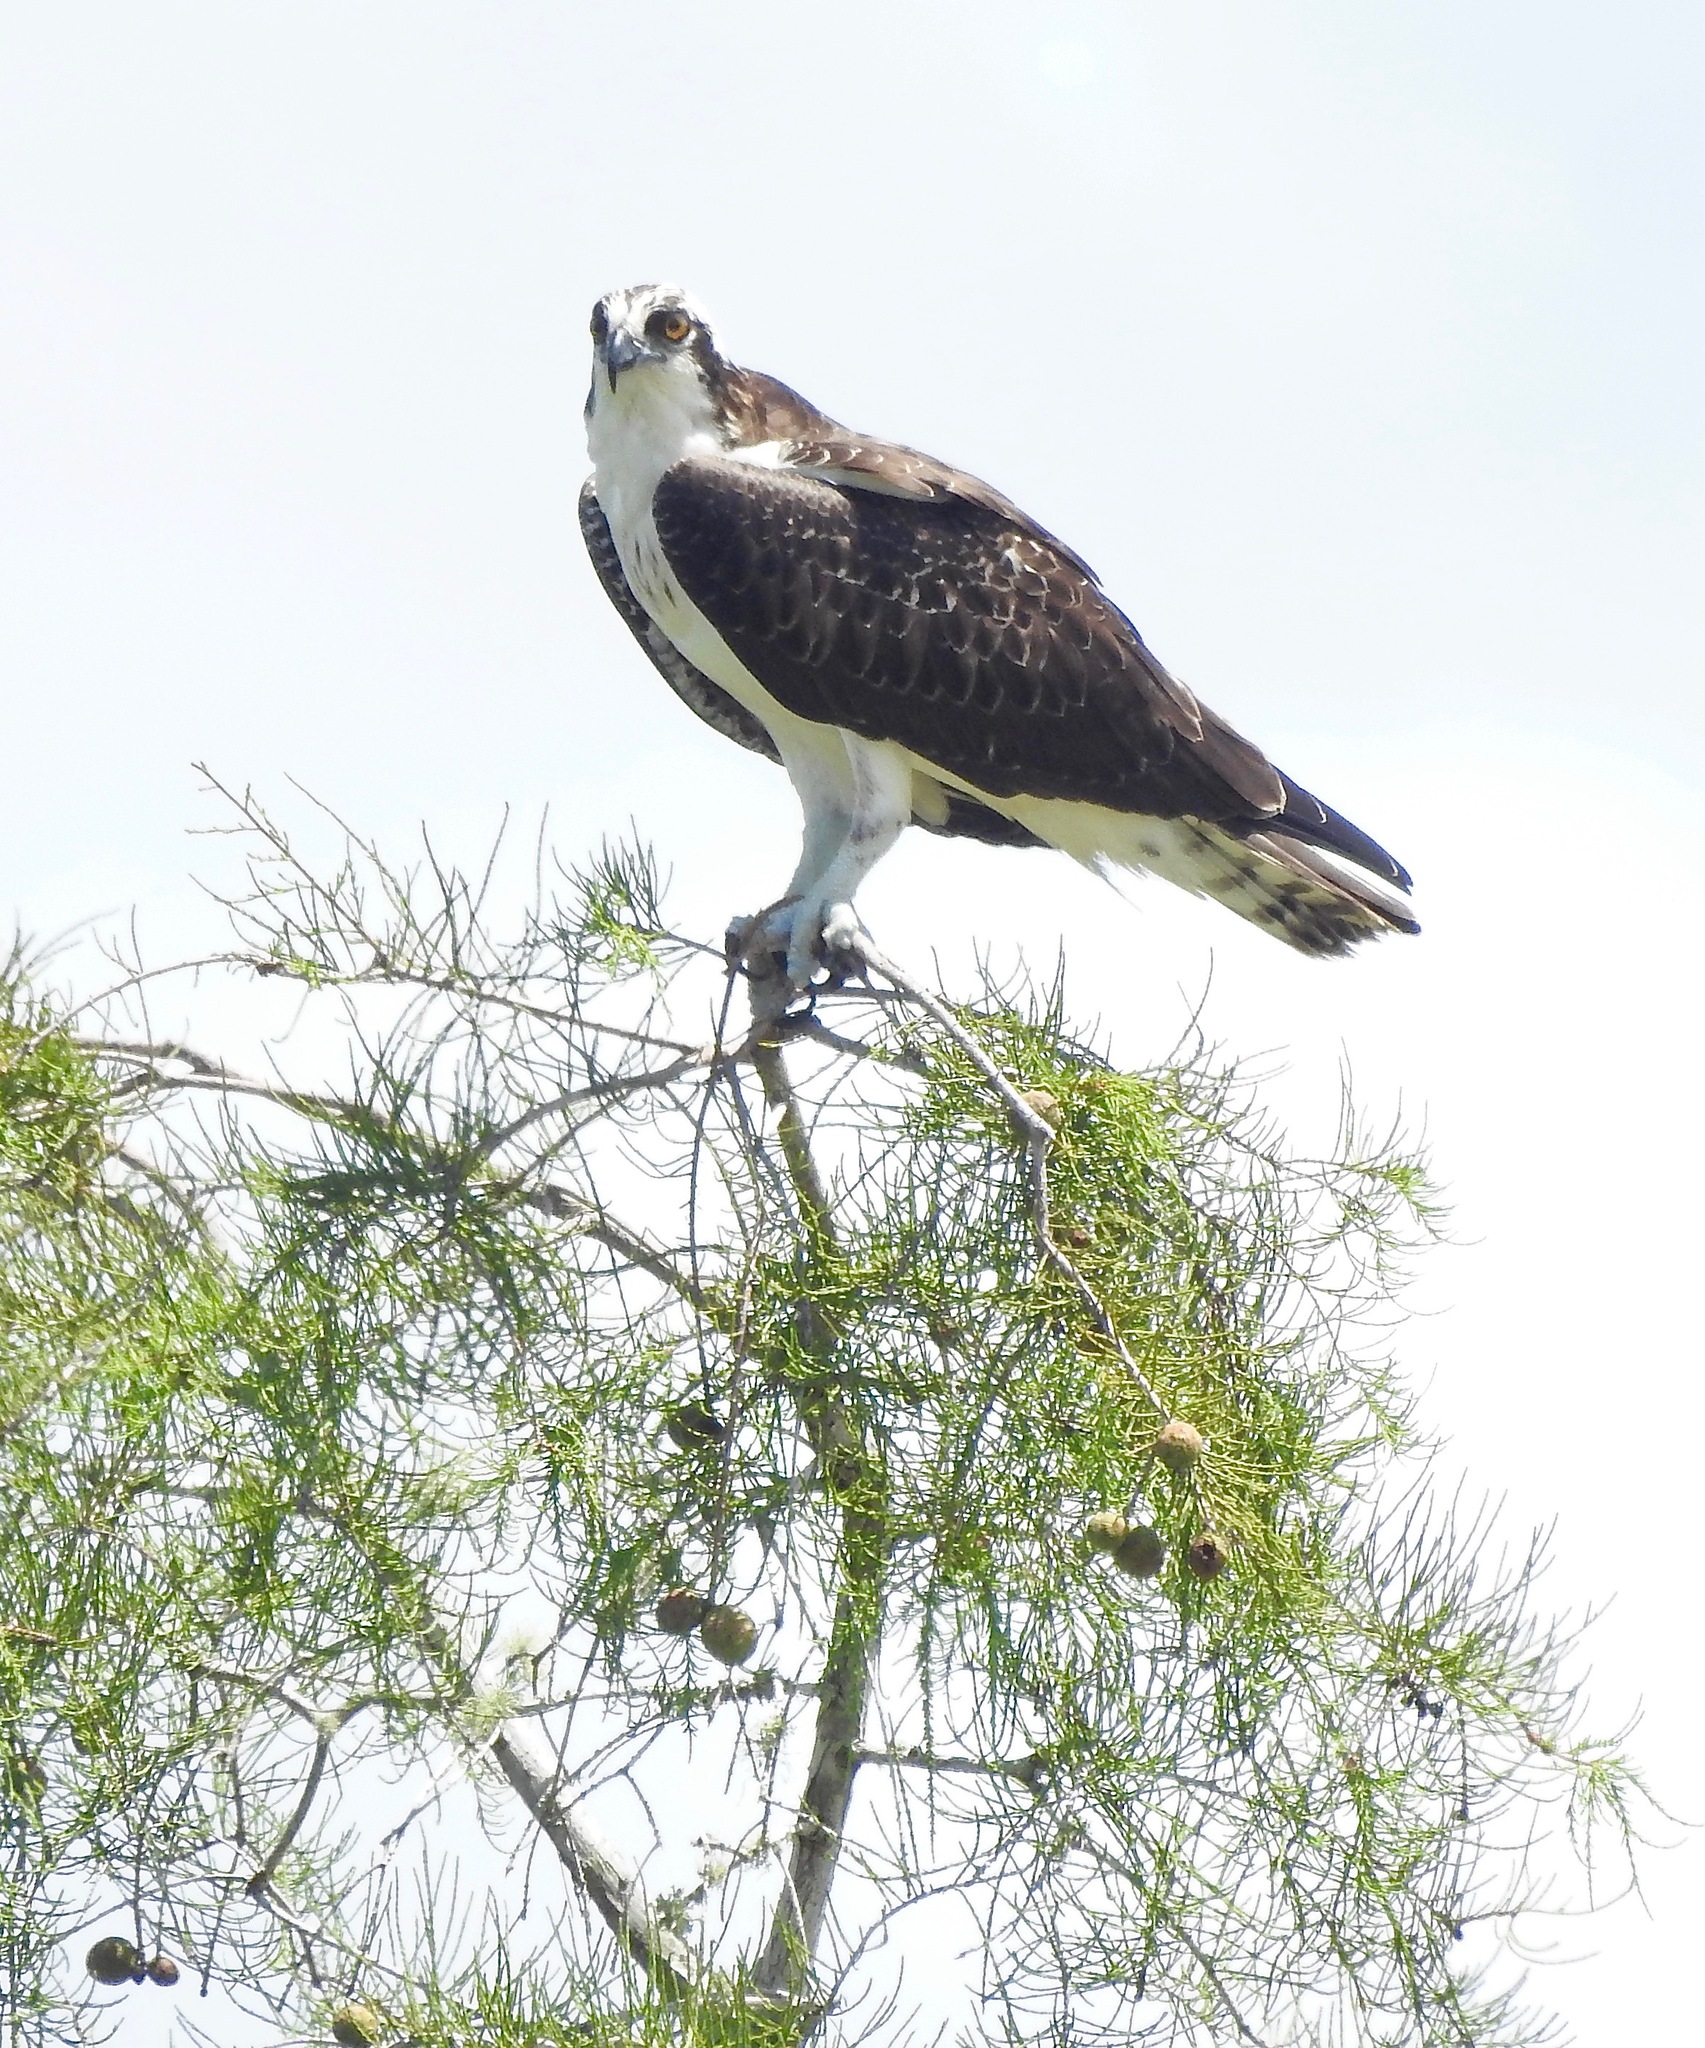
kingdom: Animalia
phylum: Chordata
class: Aves
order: Accipitriformes
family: Pandionidae
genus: Pandion
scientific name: Pandion haliaetus
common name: Osprey
